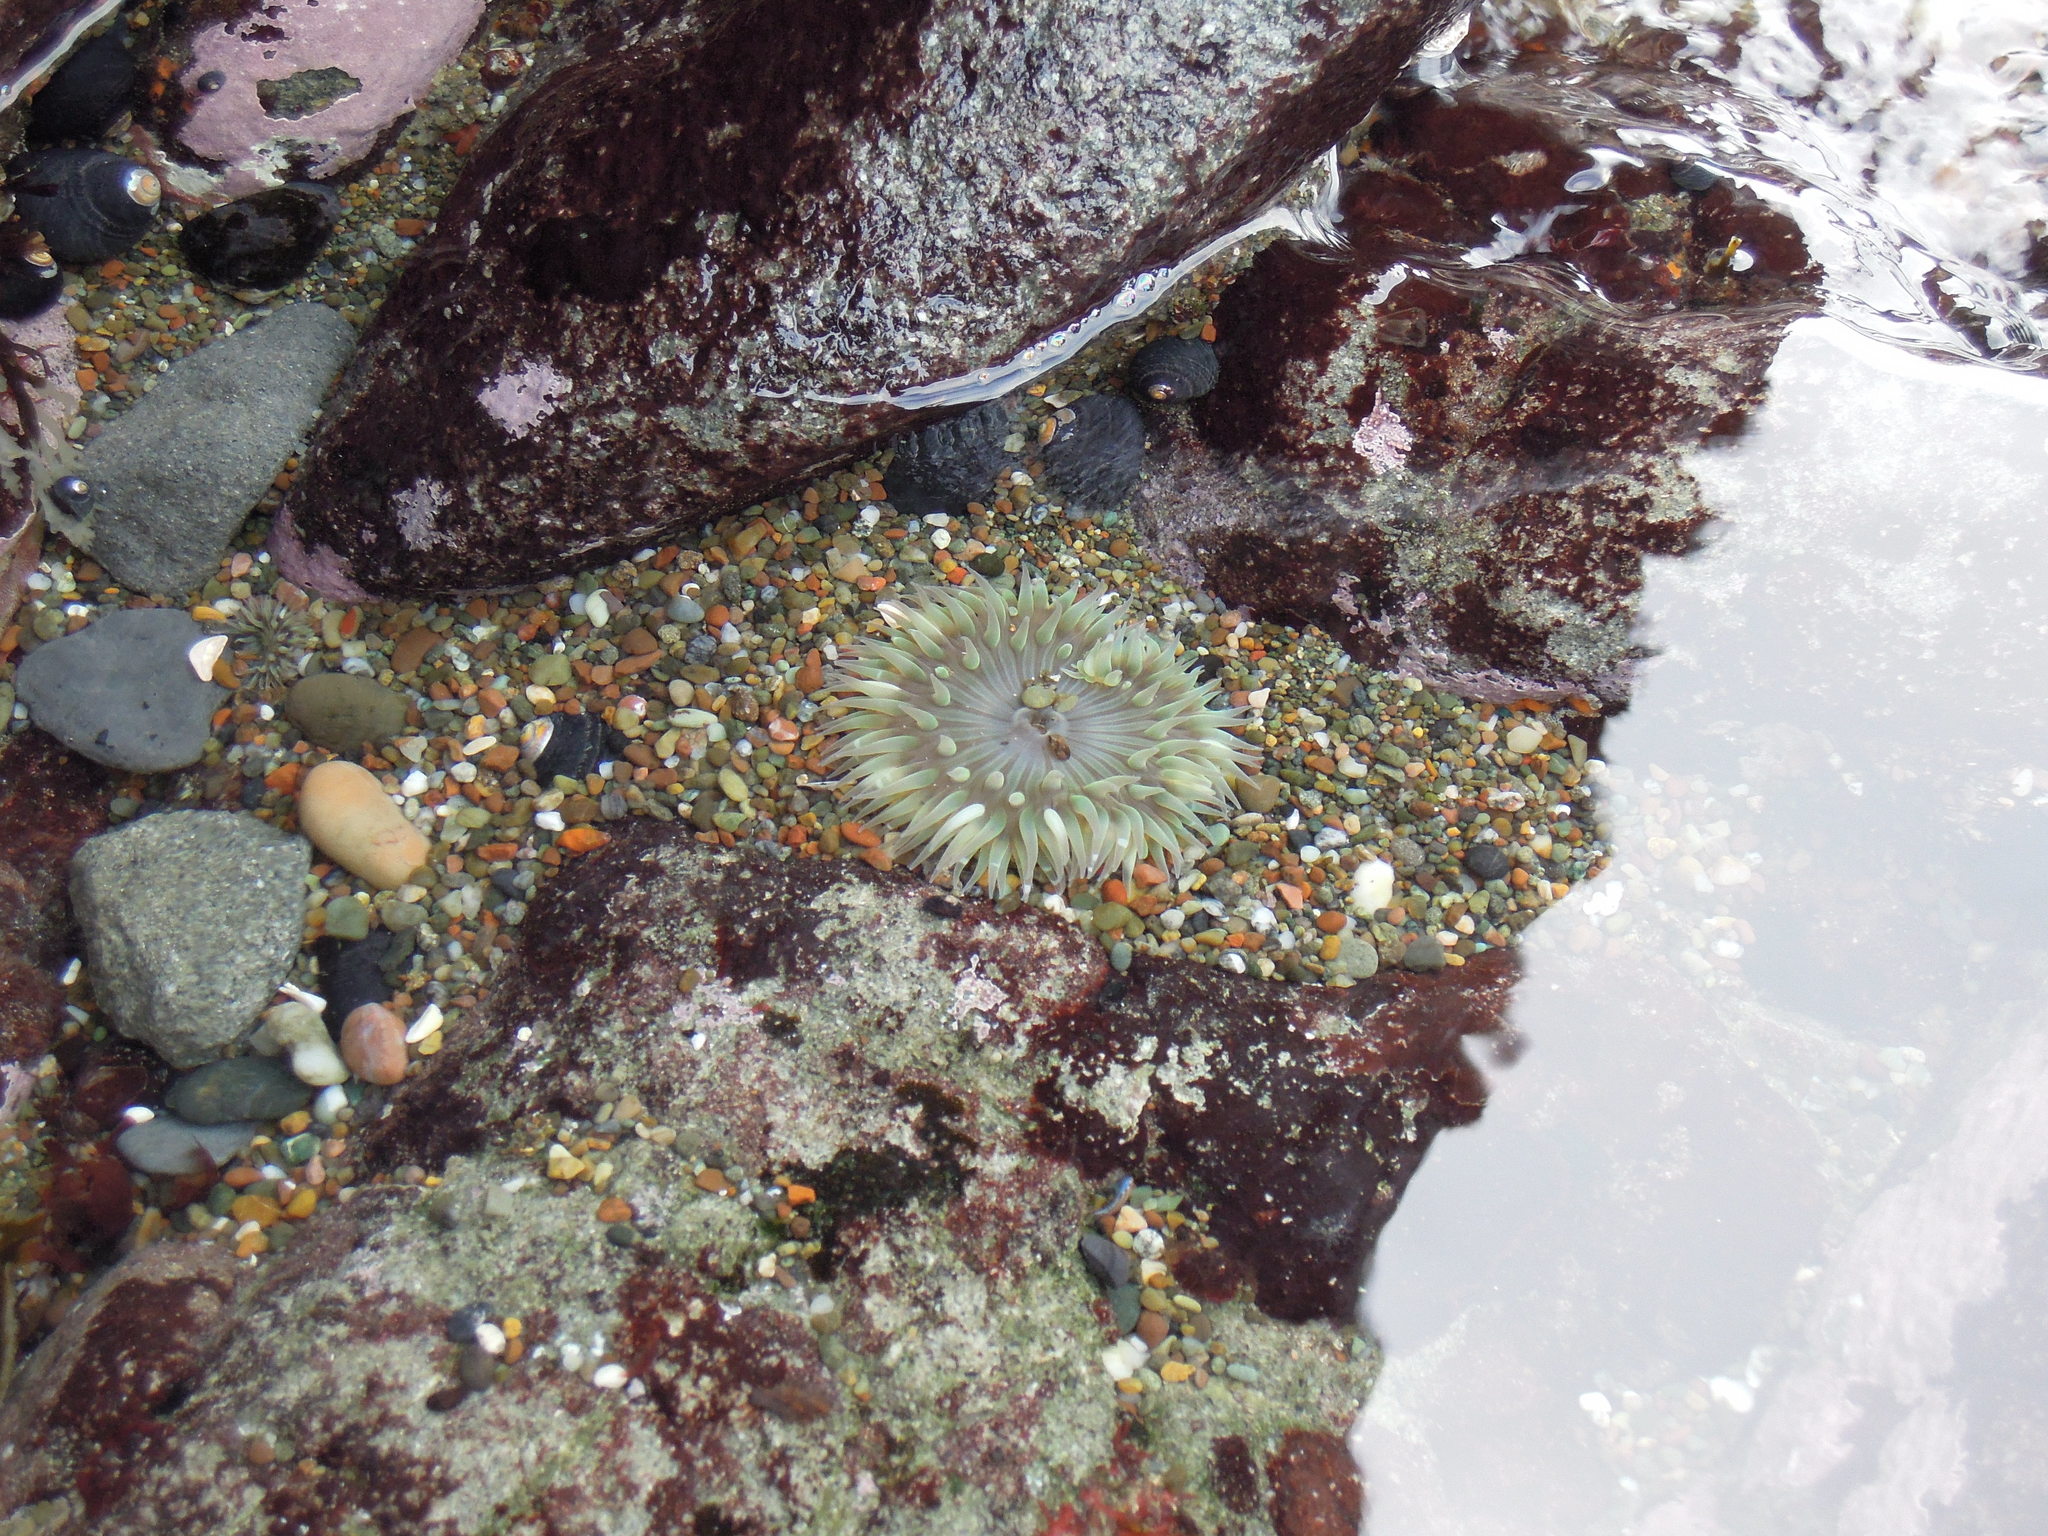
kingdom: Animalia
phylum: Cnidaria
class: Anthozoa
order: Actiniaria
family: Actiniidae
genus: Anthopleura
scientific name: Anthopleura sola
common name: Sun anemone
